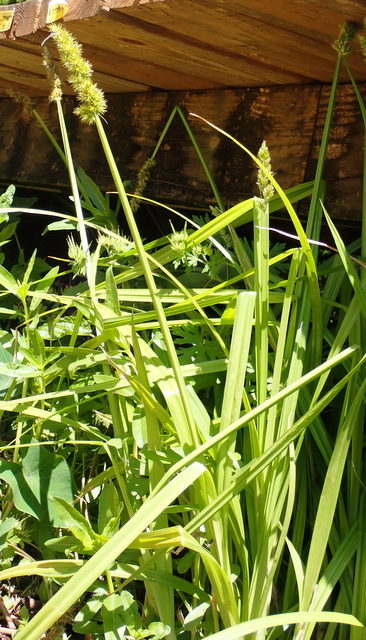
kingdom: Plantae
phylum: Tracheophyta
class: Liliopsida
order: Poales
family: Cyperaceae
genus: Carex
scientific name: Carex stipata
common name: Awl-fruited sedge
